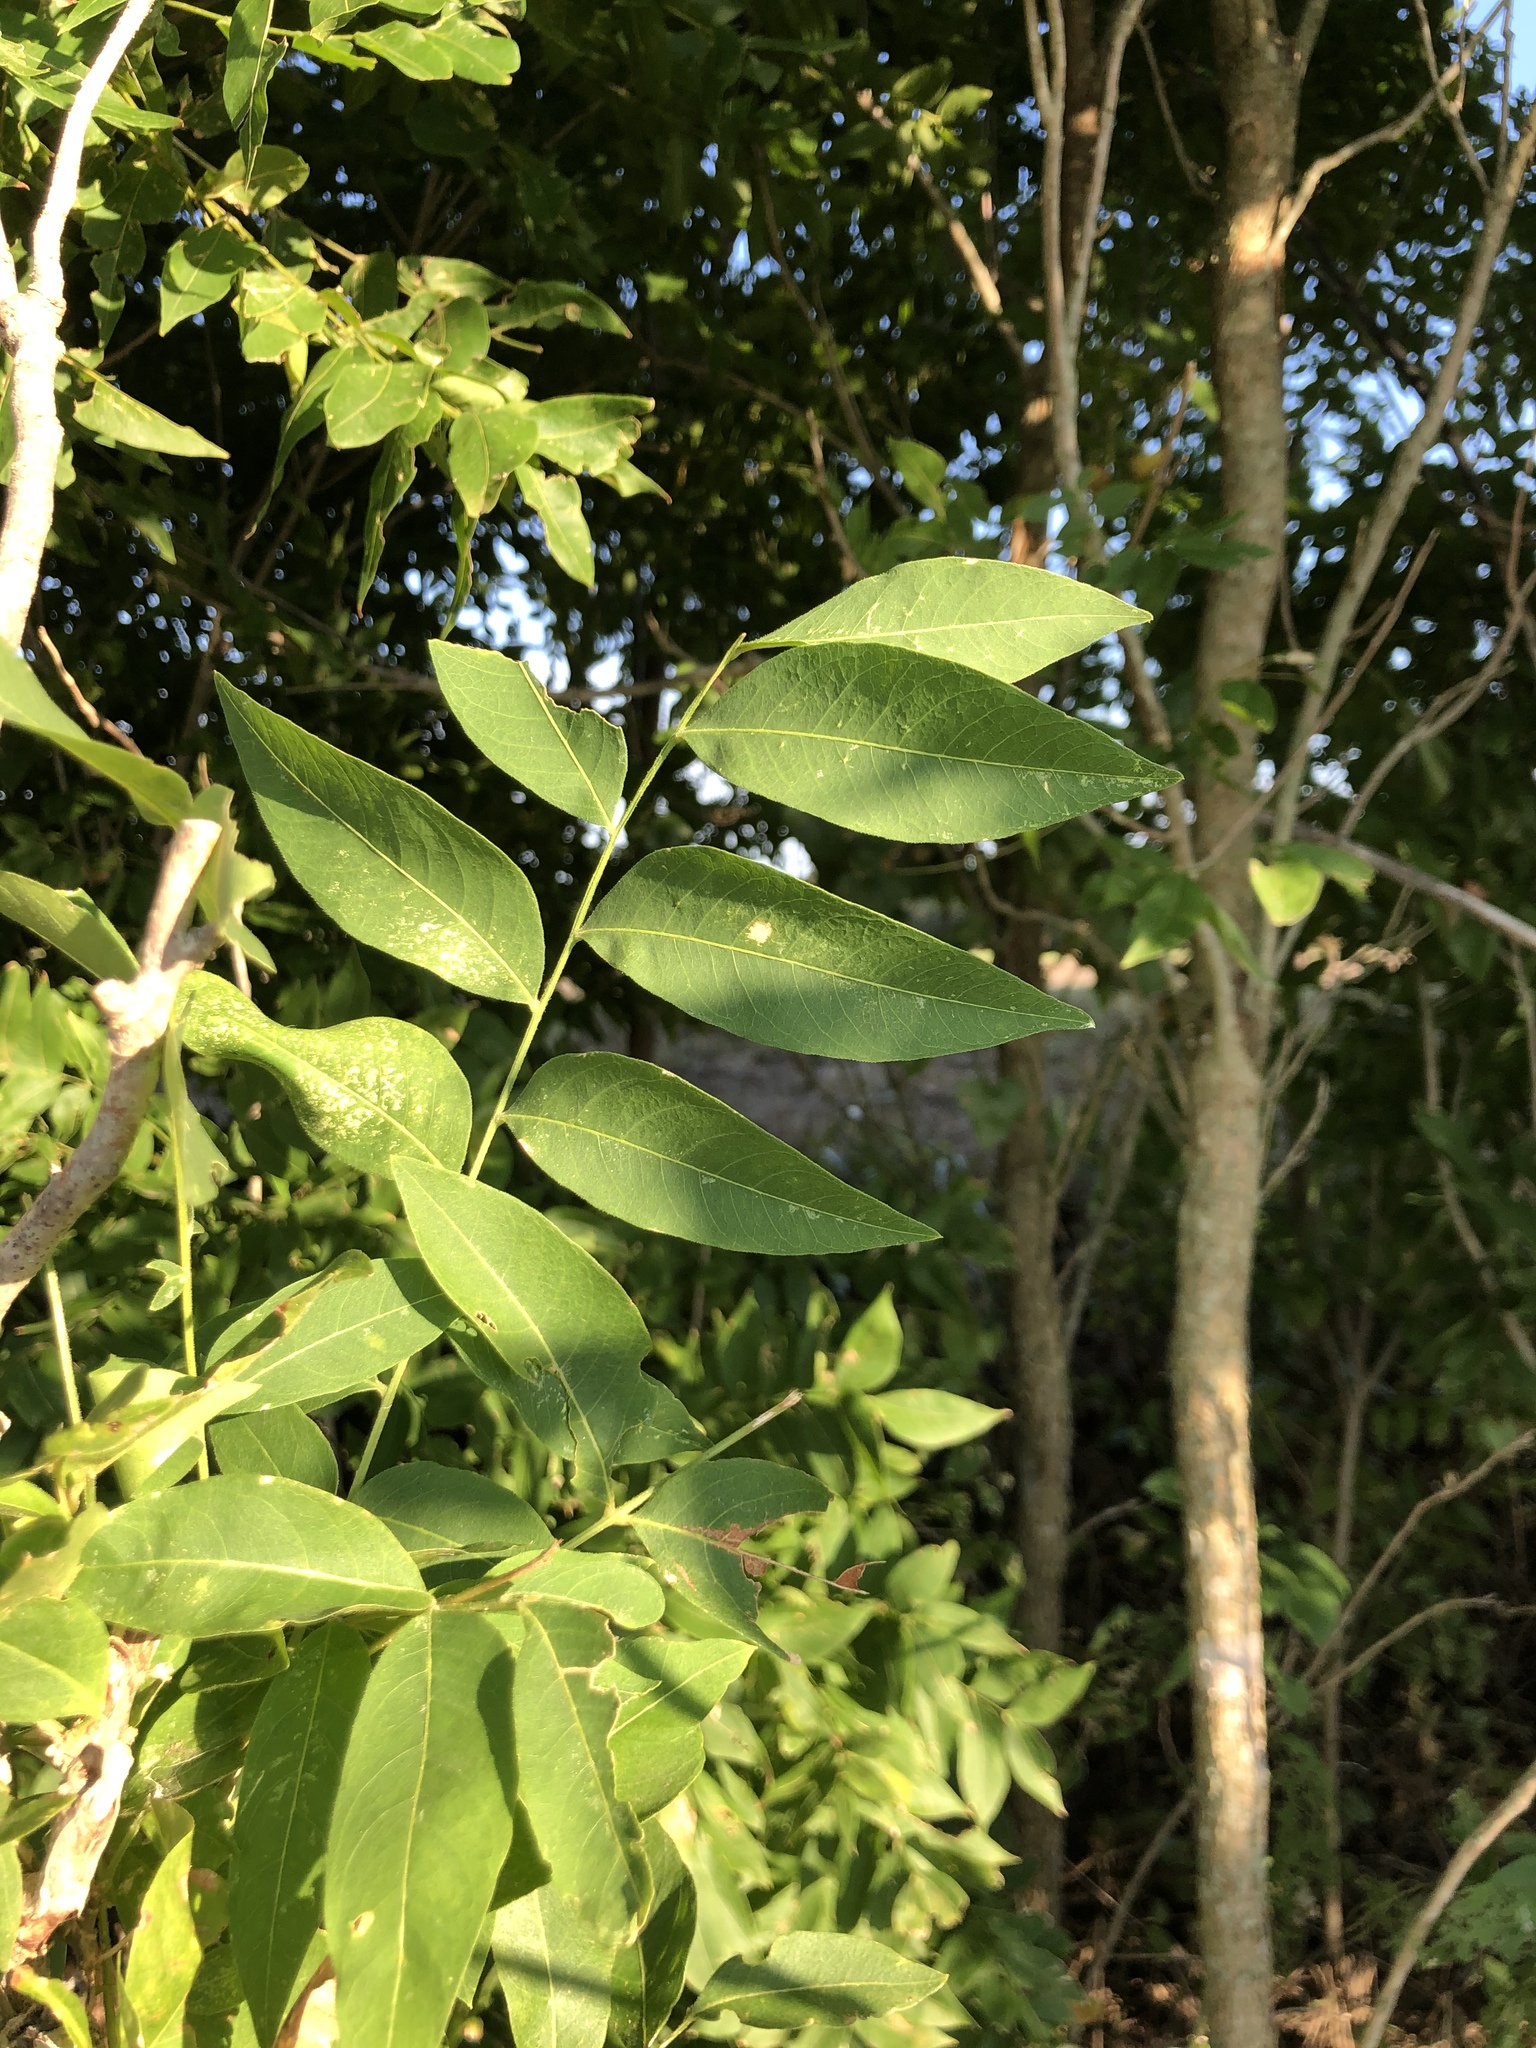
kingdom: Plantae
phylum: Tracheophyta
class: Magnoliopsida
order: Sapindales
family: Sapindaceae
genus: Sapindus
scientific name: Sapindus drummondii
